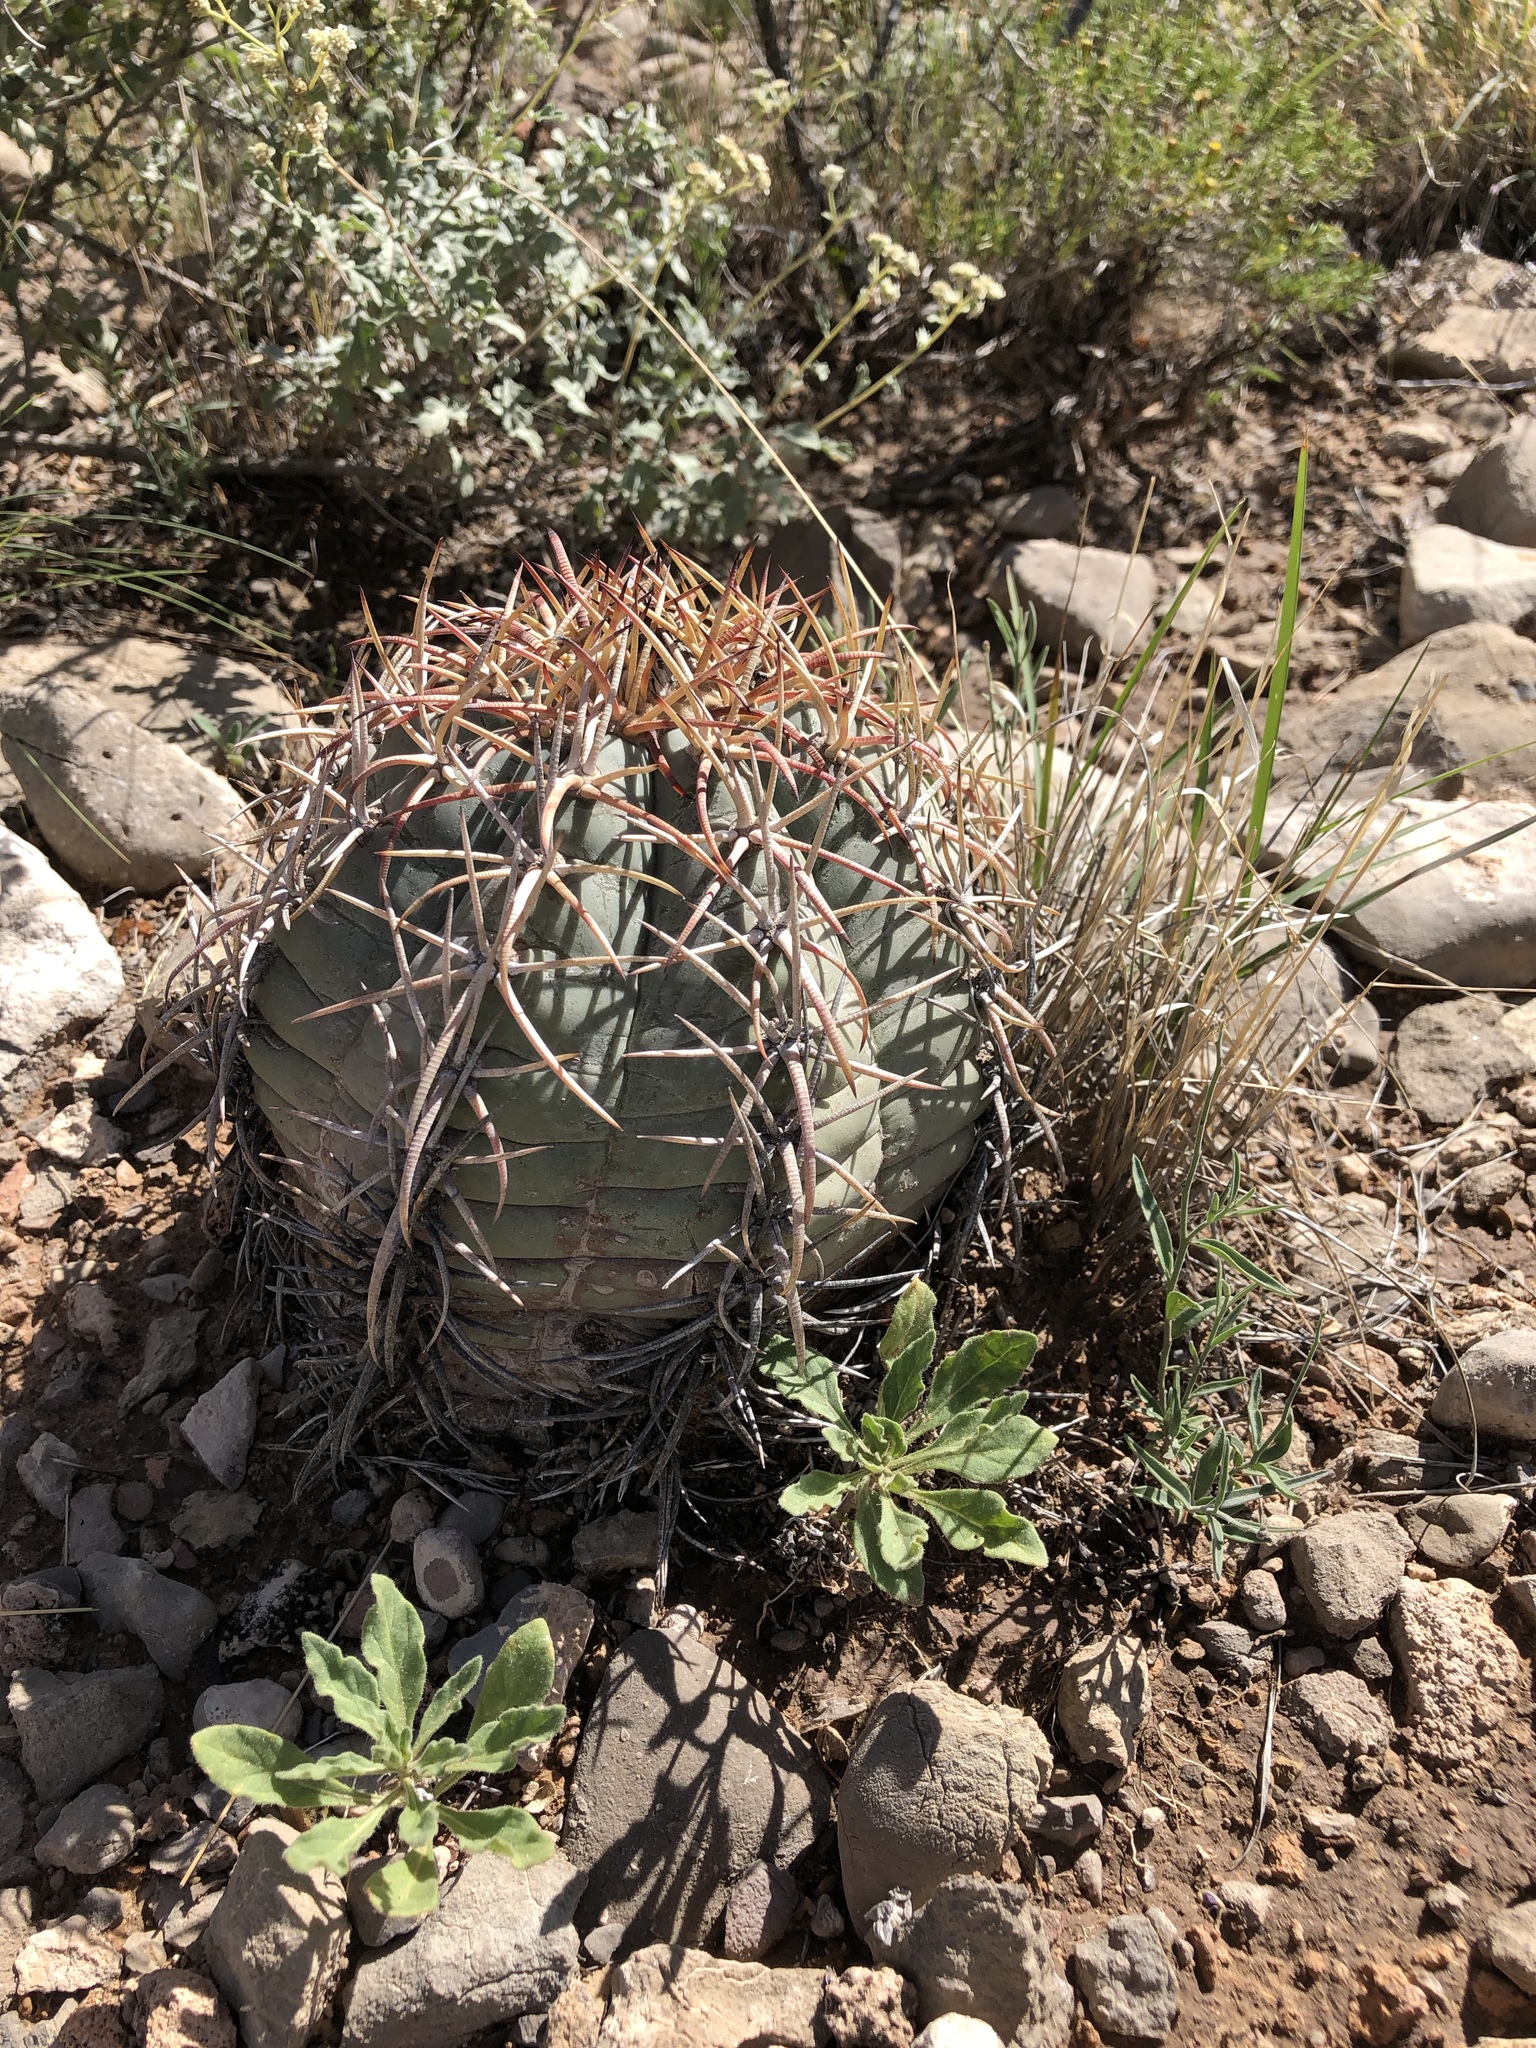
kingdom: Plantae
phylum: Tracheophyta
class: Magnoliopsida
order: Caryophyllales
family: Cactaceae
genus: Echinocactus
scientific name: Echinocactus horizonthalonius
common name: Devilshead
